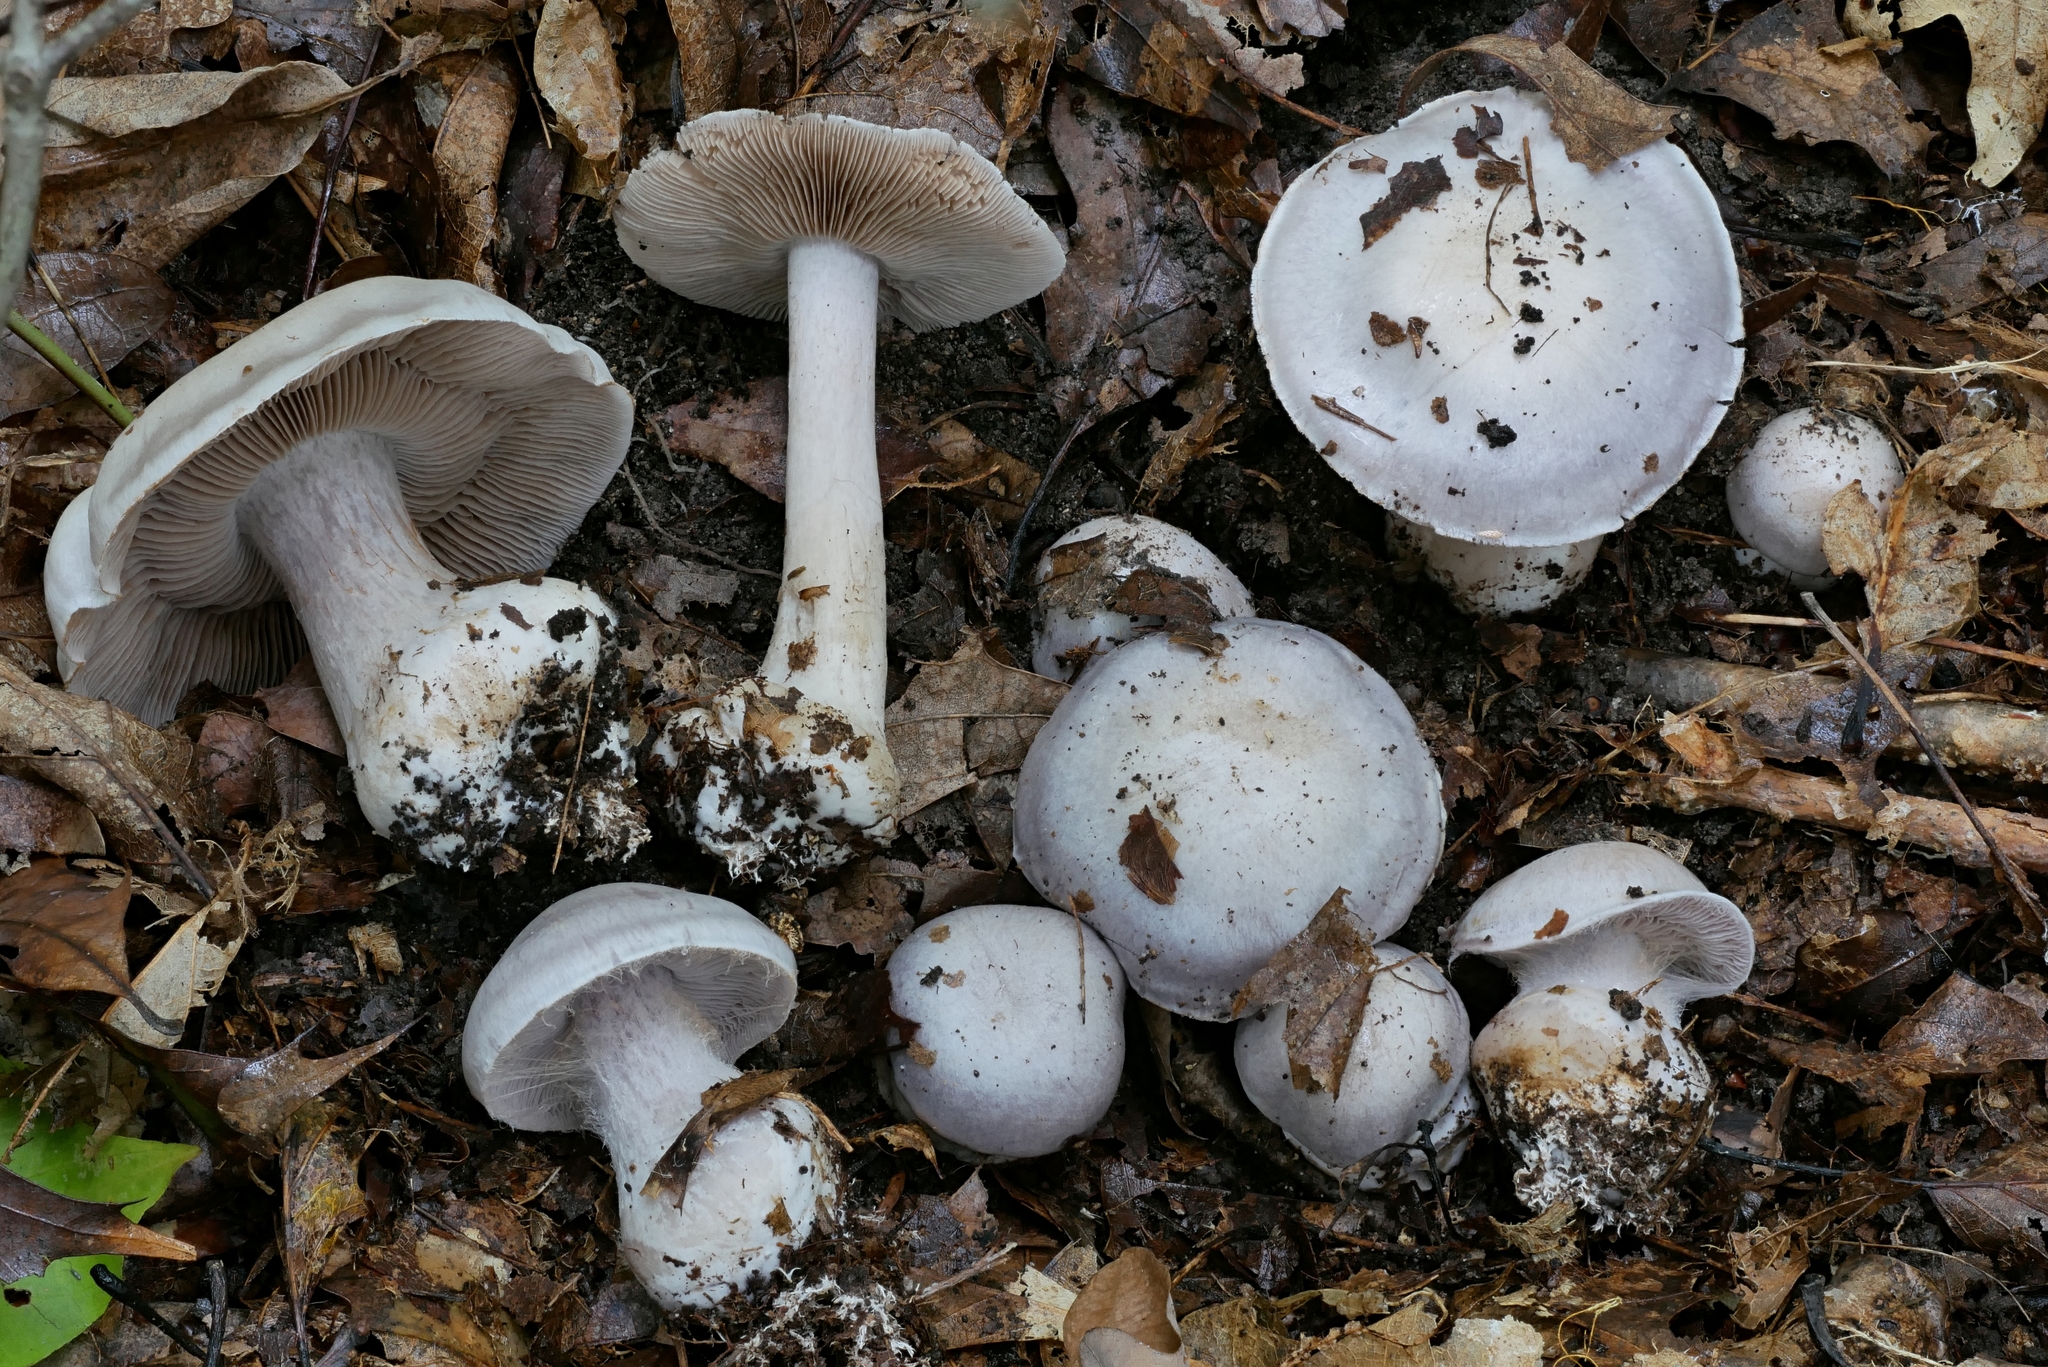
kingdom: Fungi
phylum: Basidiomycota
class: Agaricomycetes
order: Agaricales
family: Cortinariaceae
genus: Cortinarius
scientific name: Cortinarius alboviolaceus
